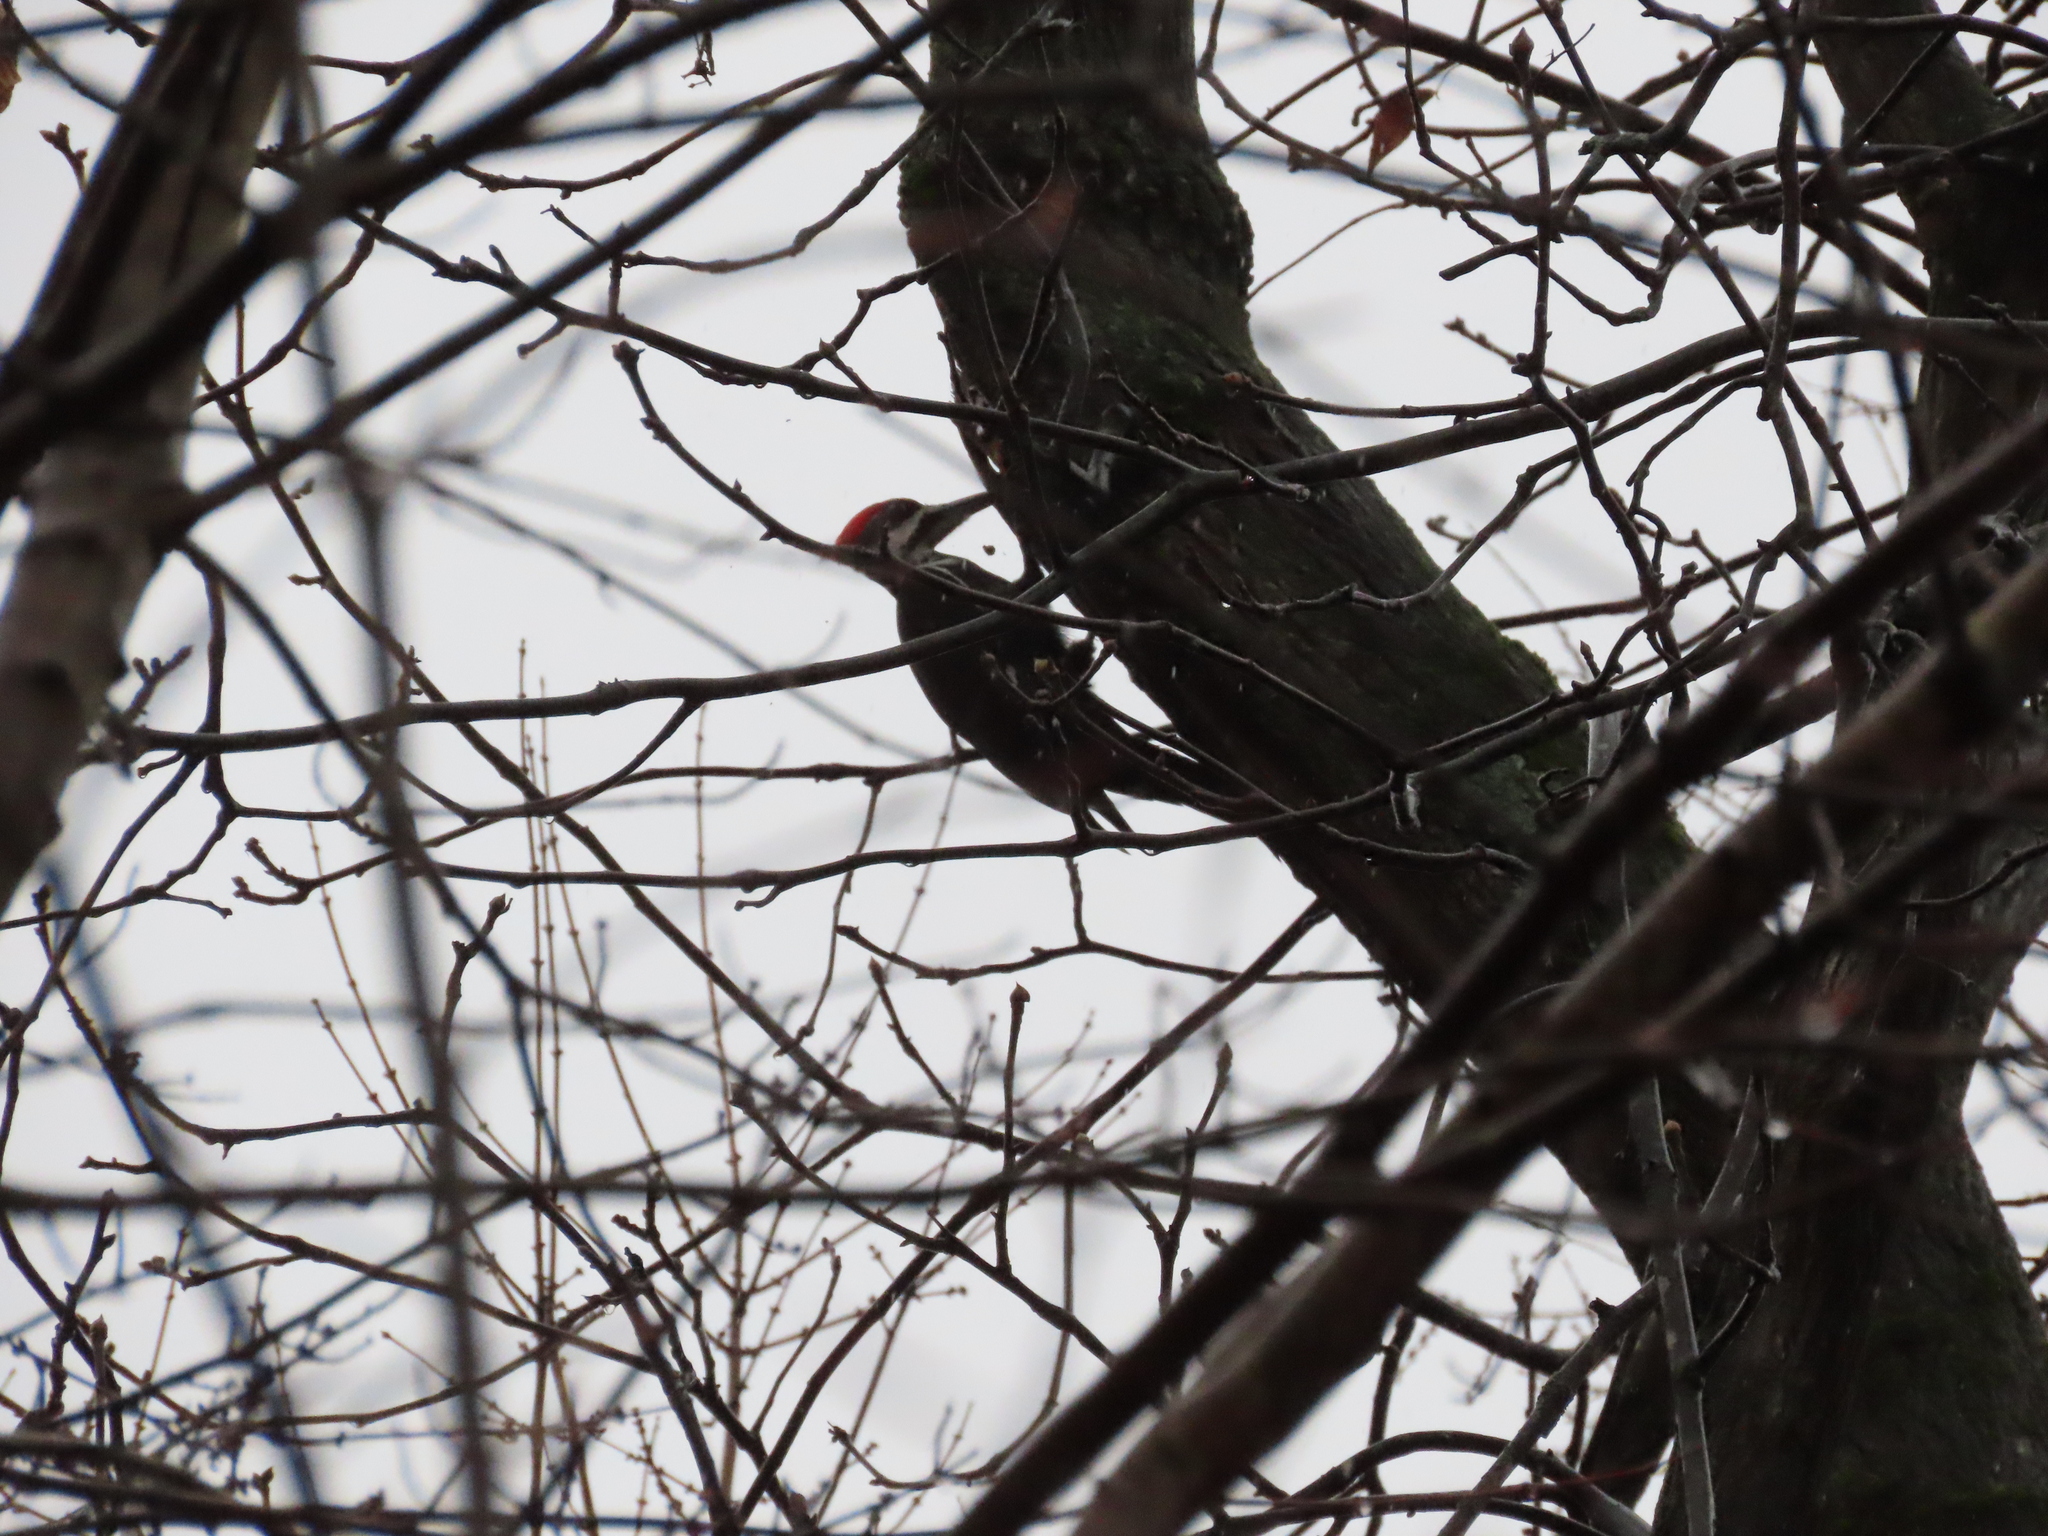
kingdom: Animalia
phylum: Chordata
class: Aves
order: Piciformes
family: Picidae
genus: Dryocopus
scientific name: Dryocopus pileatus
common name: Pileated woodpecker
